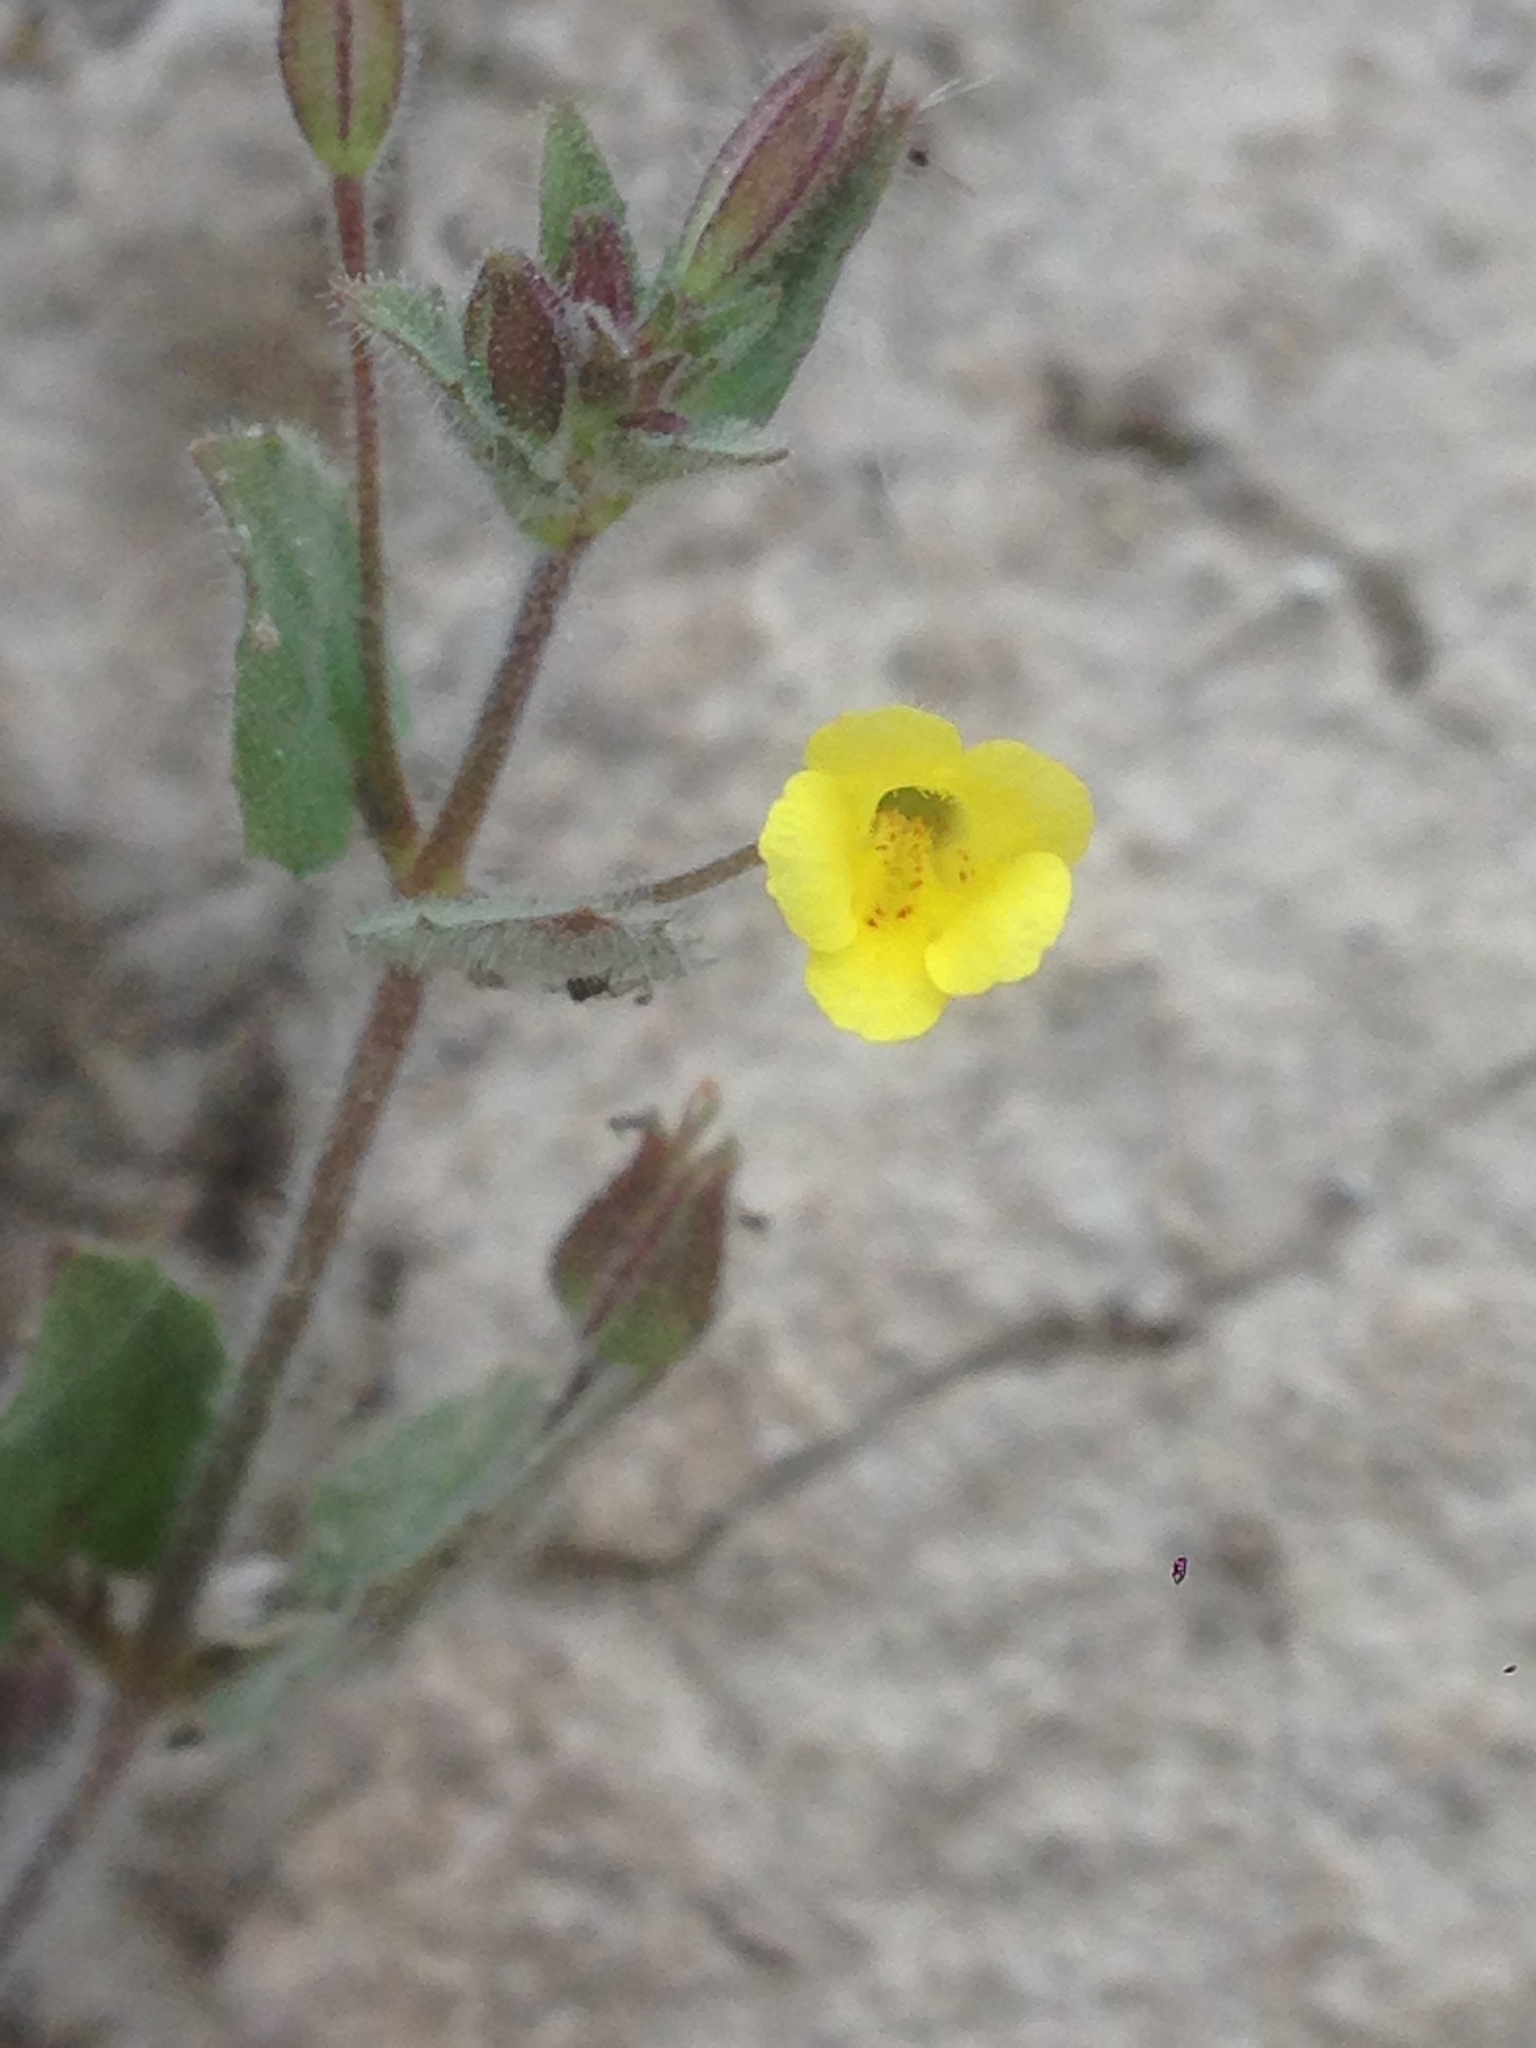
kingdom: Plantae
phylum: Tracheophyta
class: Magnoliopsida
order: Lamiales
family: Phrymaceae
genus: Erythranthe
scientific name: Erythranthe floribunda
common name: Floriferous monkeyflower
